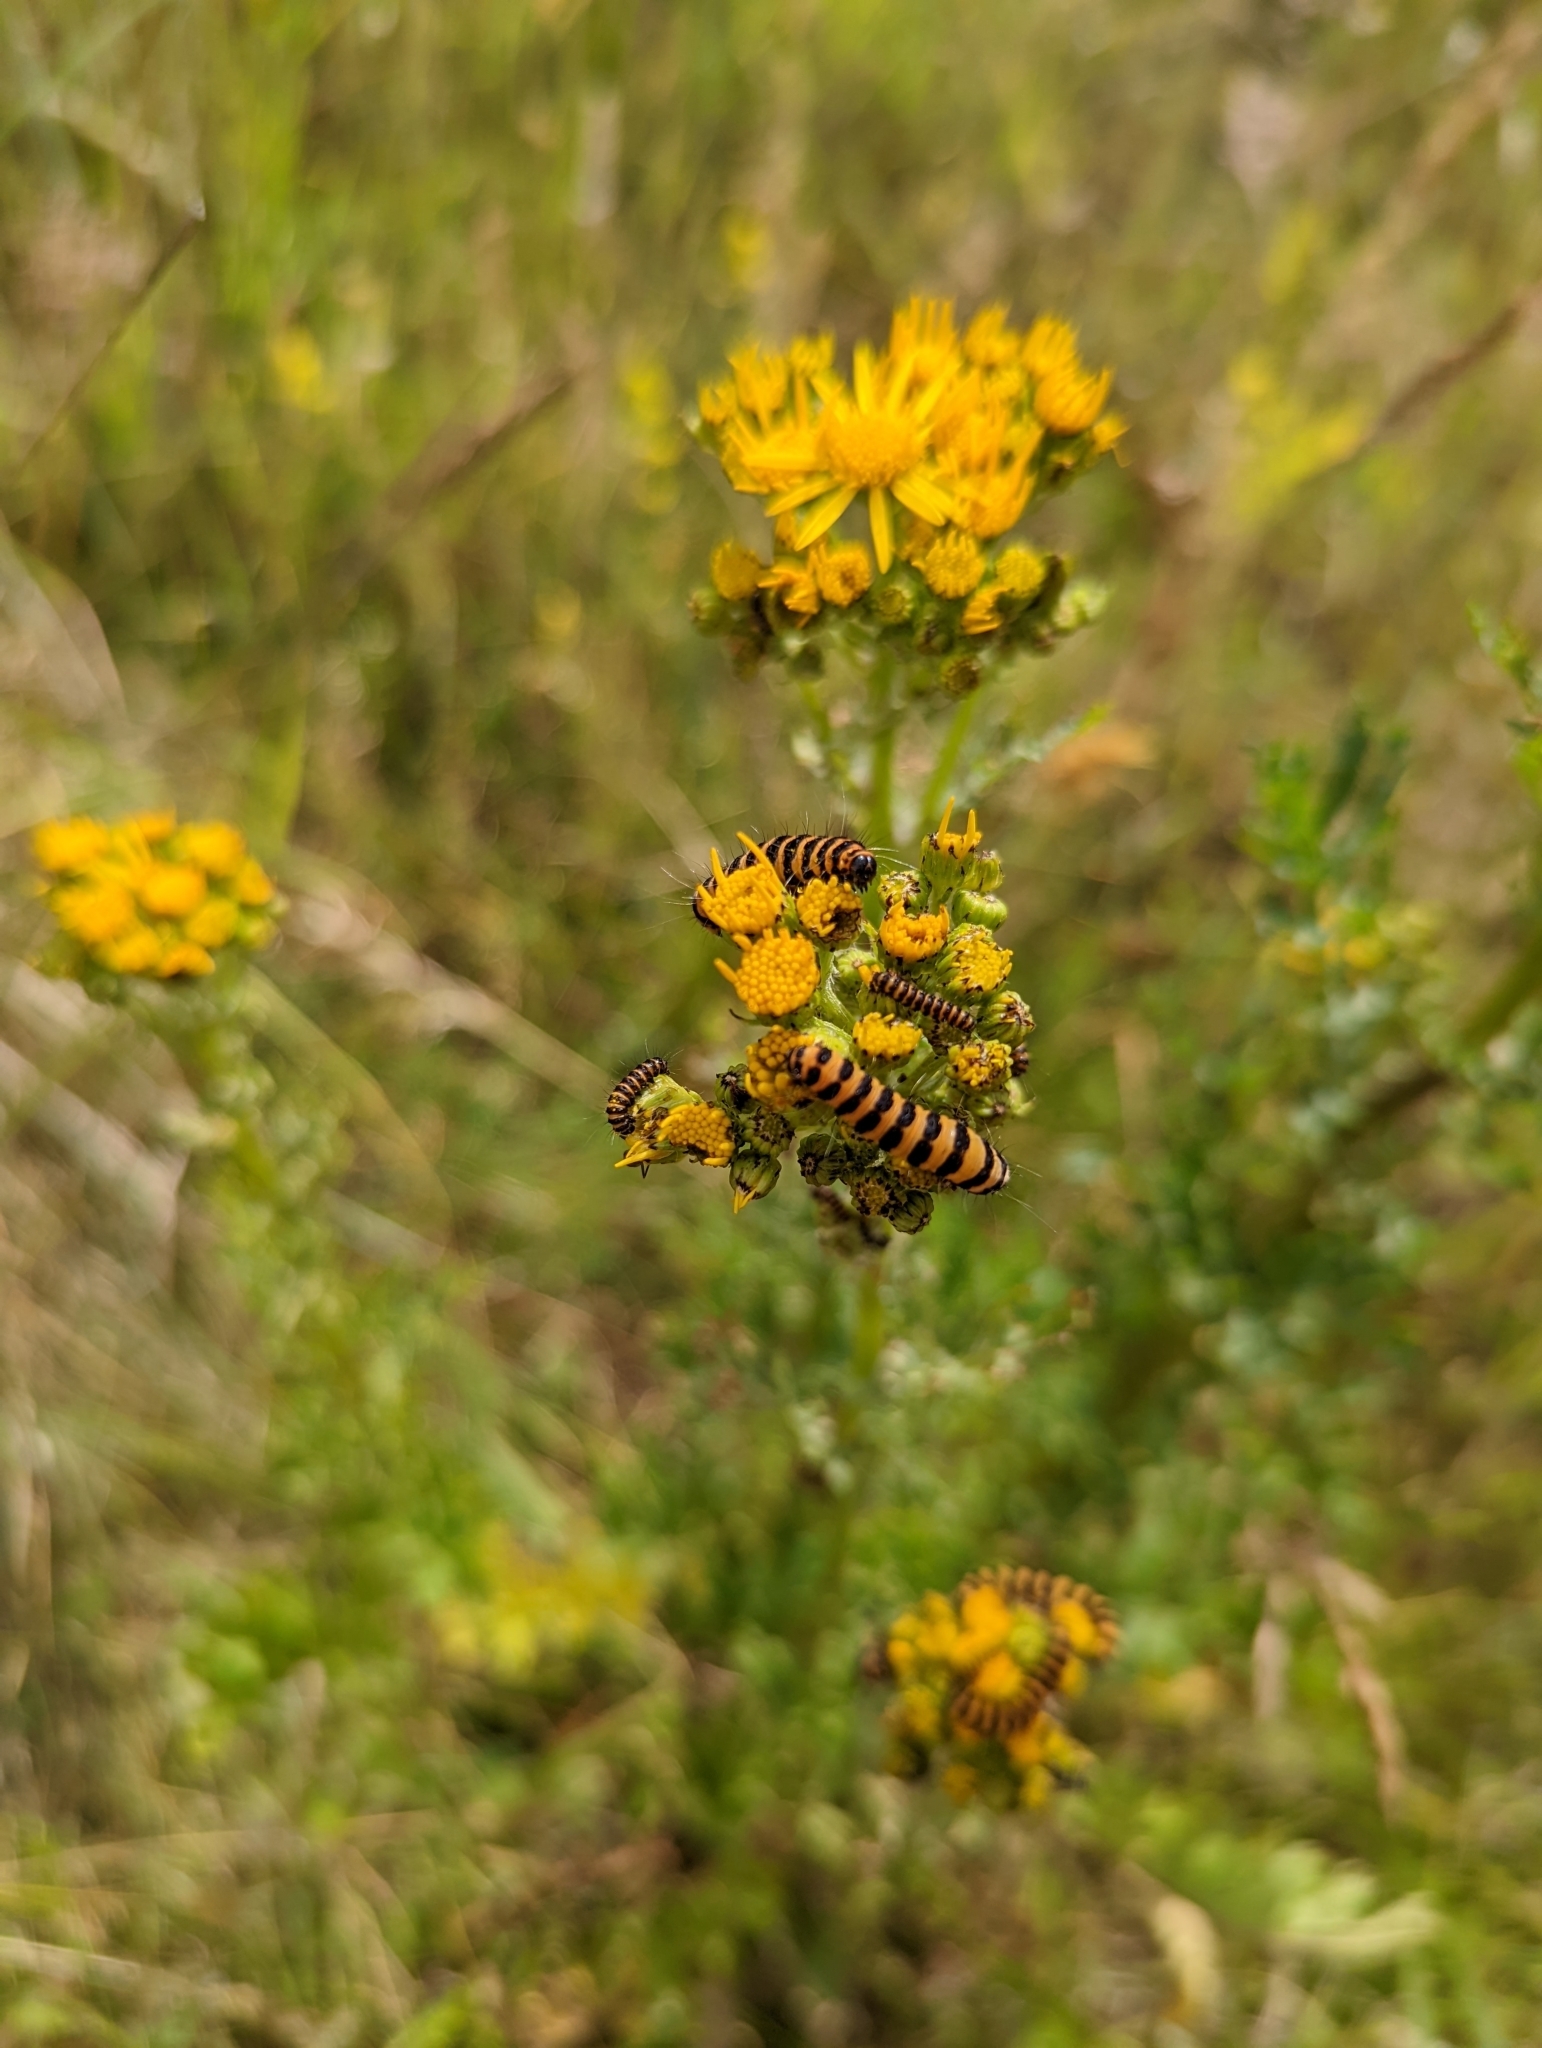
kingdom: Animalia
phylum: Arthropoda
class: Insecta
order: Lepidoptera
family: Erebidae
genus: Tyria
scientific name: Tyria jacobaeae
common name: Cinnabar
